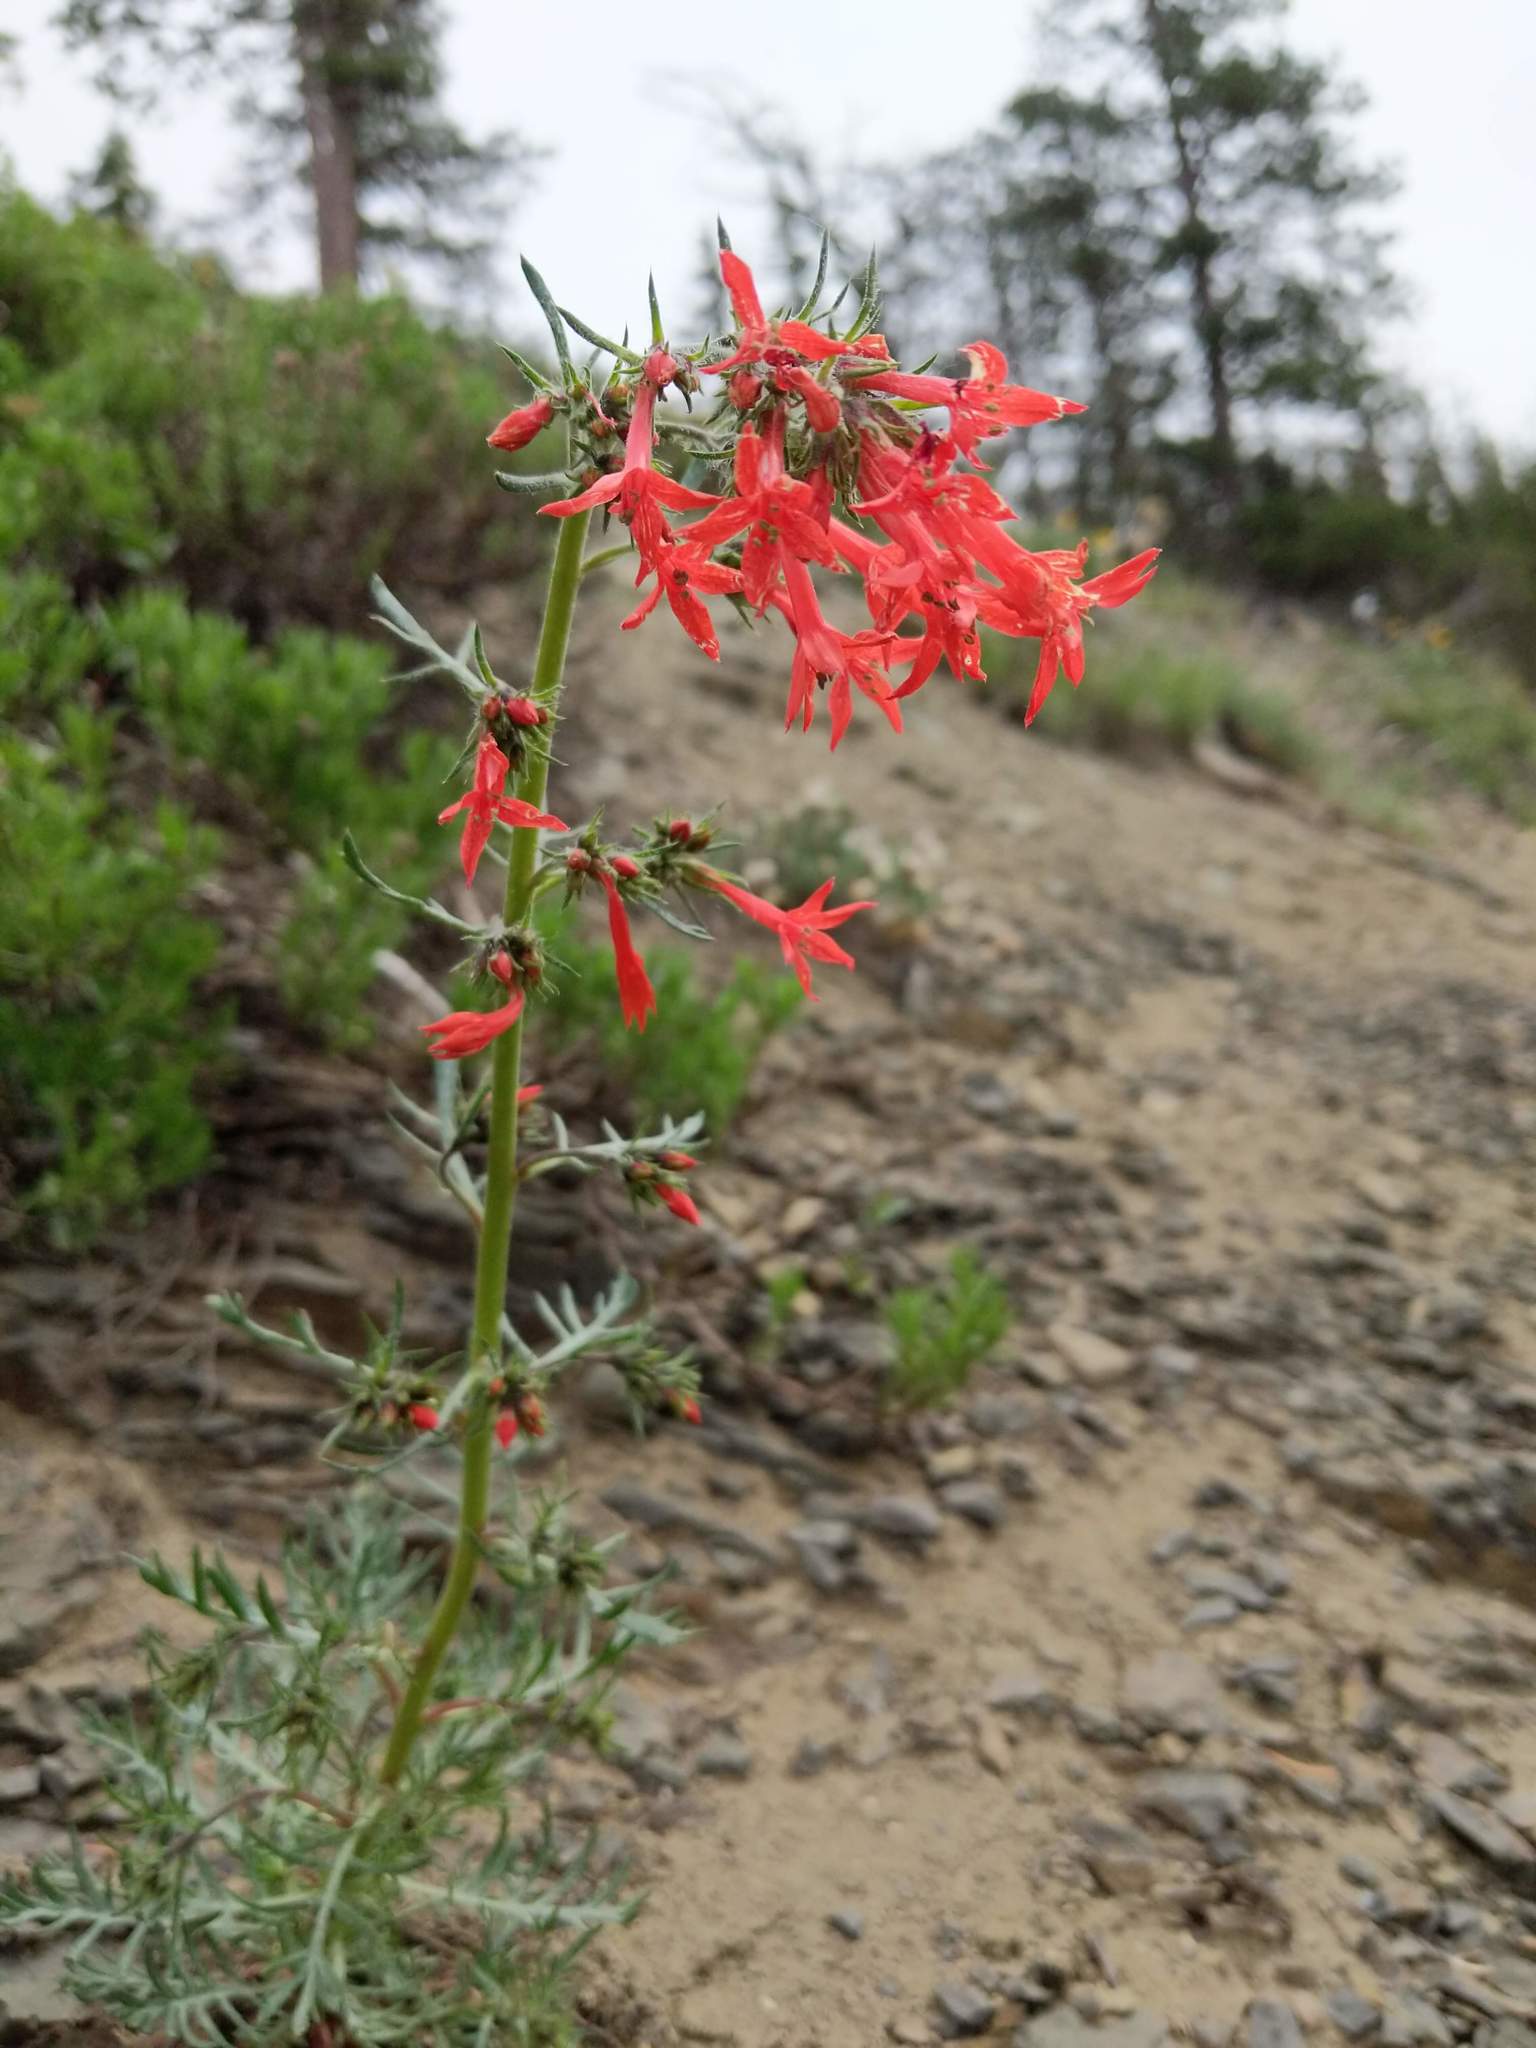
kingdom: Plantae
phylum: Tracheophyta
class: Magnoliopsida
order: Ericales
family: Polemoniaceae
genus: Ipomopsis
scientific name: Ipomopsis aggregata
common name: Scarlet gilia
